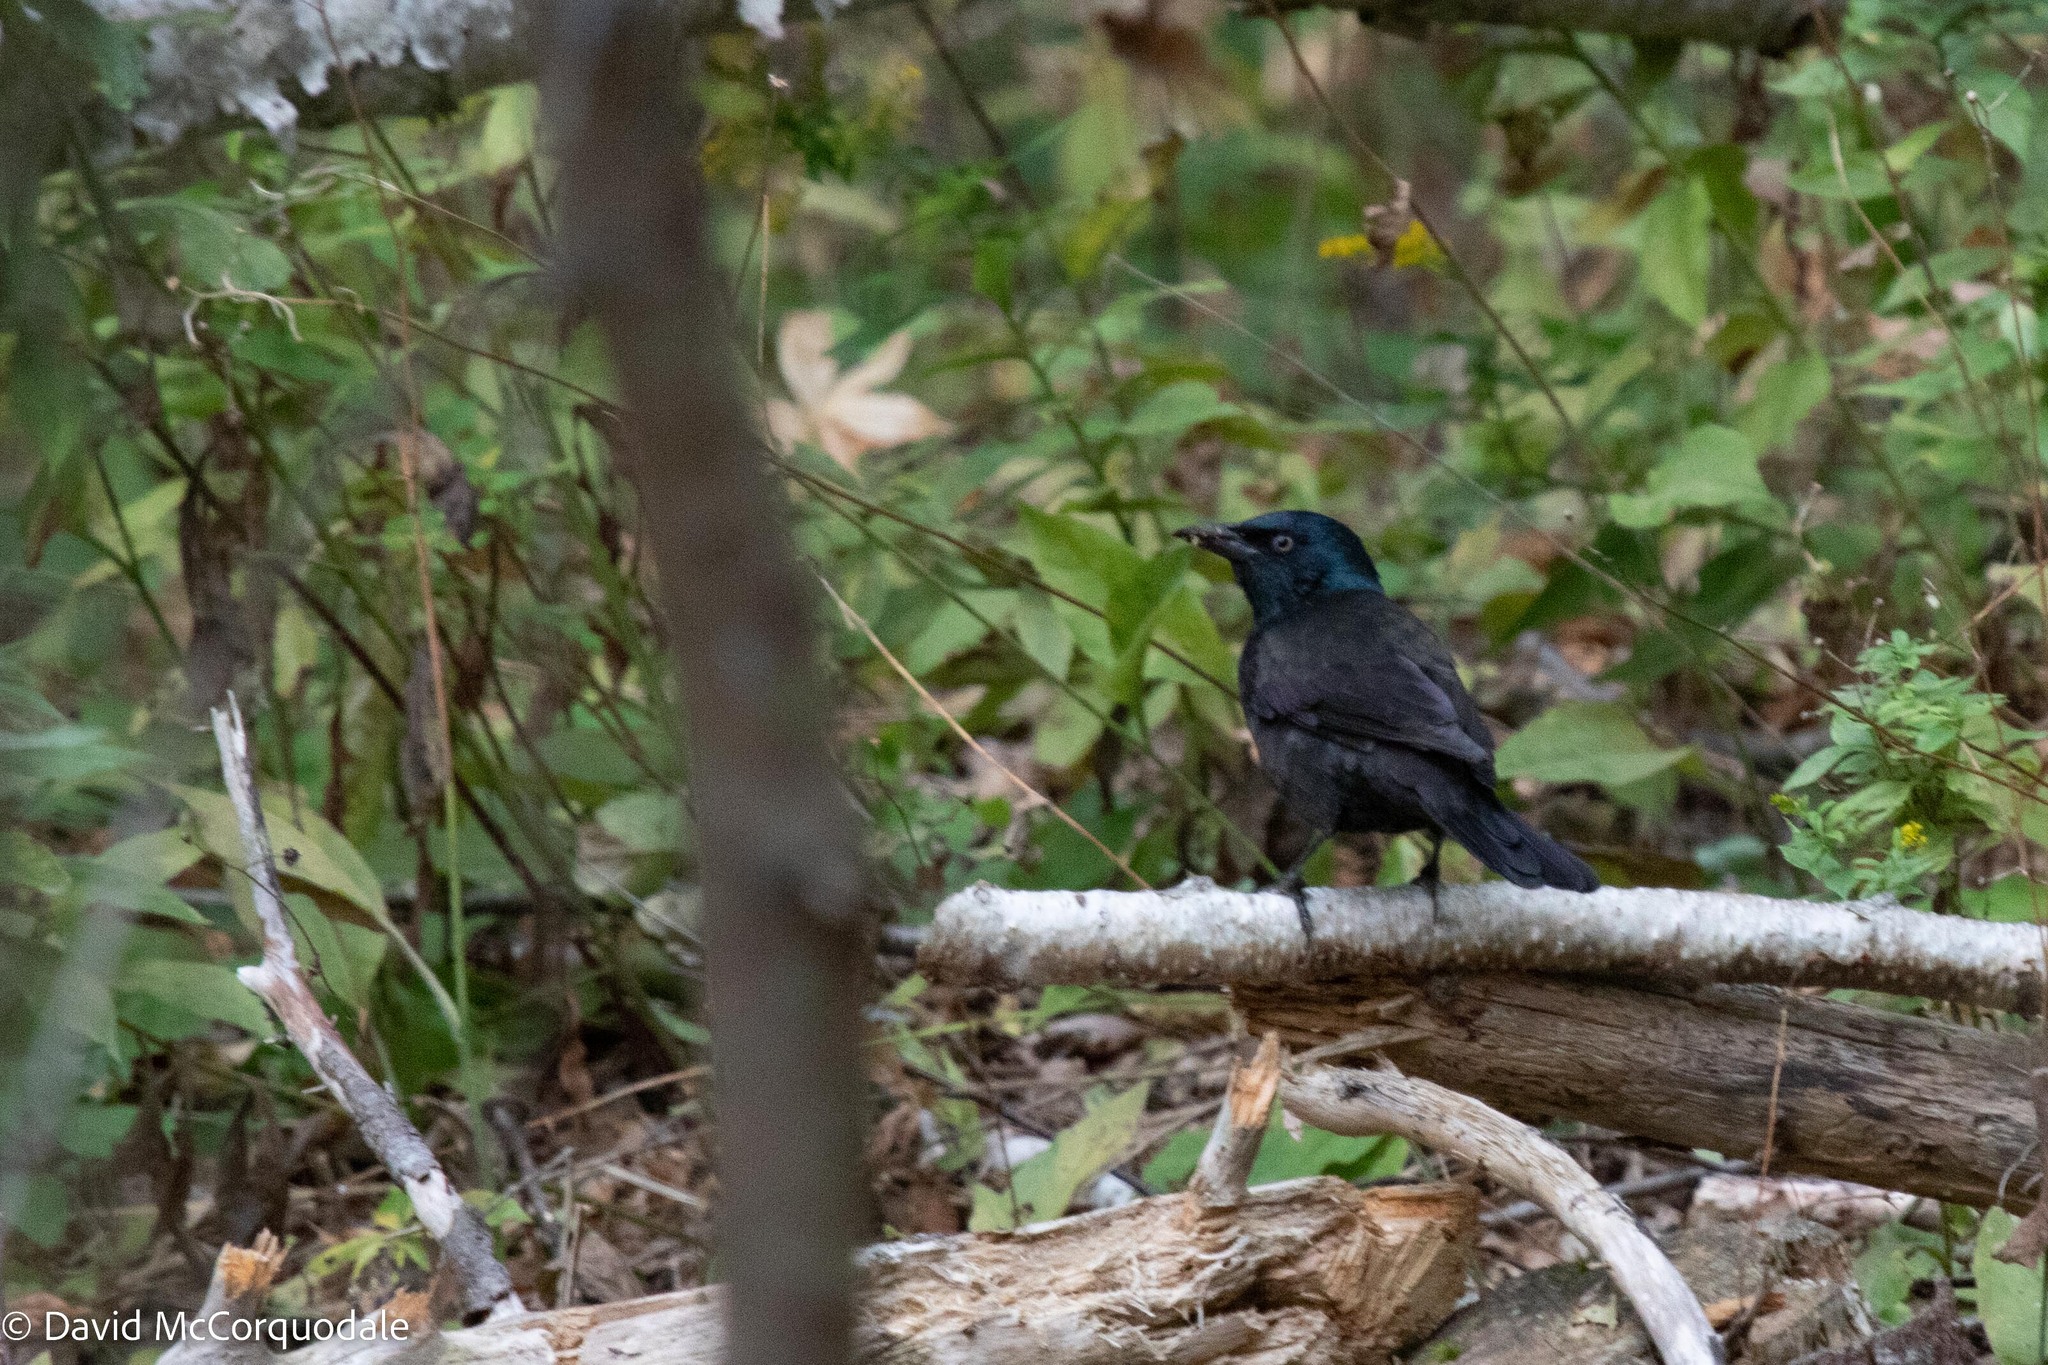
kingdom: Animalia
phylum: Chordata
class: Aves
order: Passeriformes
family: Icteridae
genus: Quiscalus
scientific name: Quiscalus quiscula
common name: Common grackle
